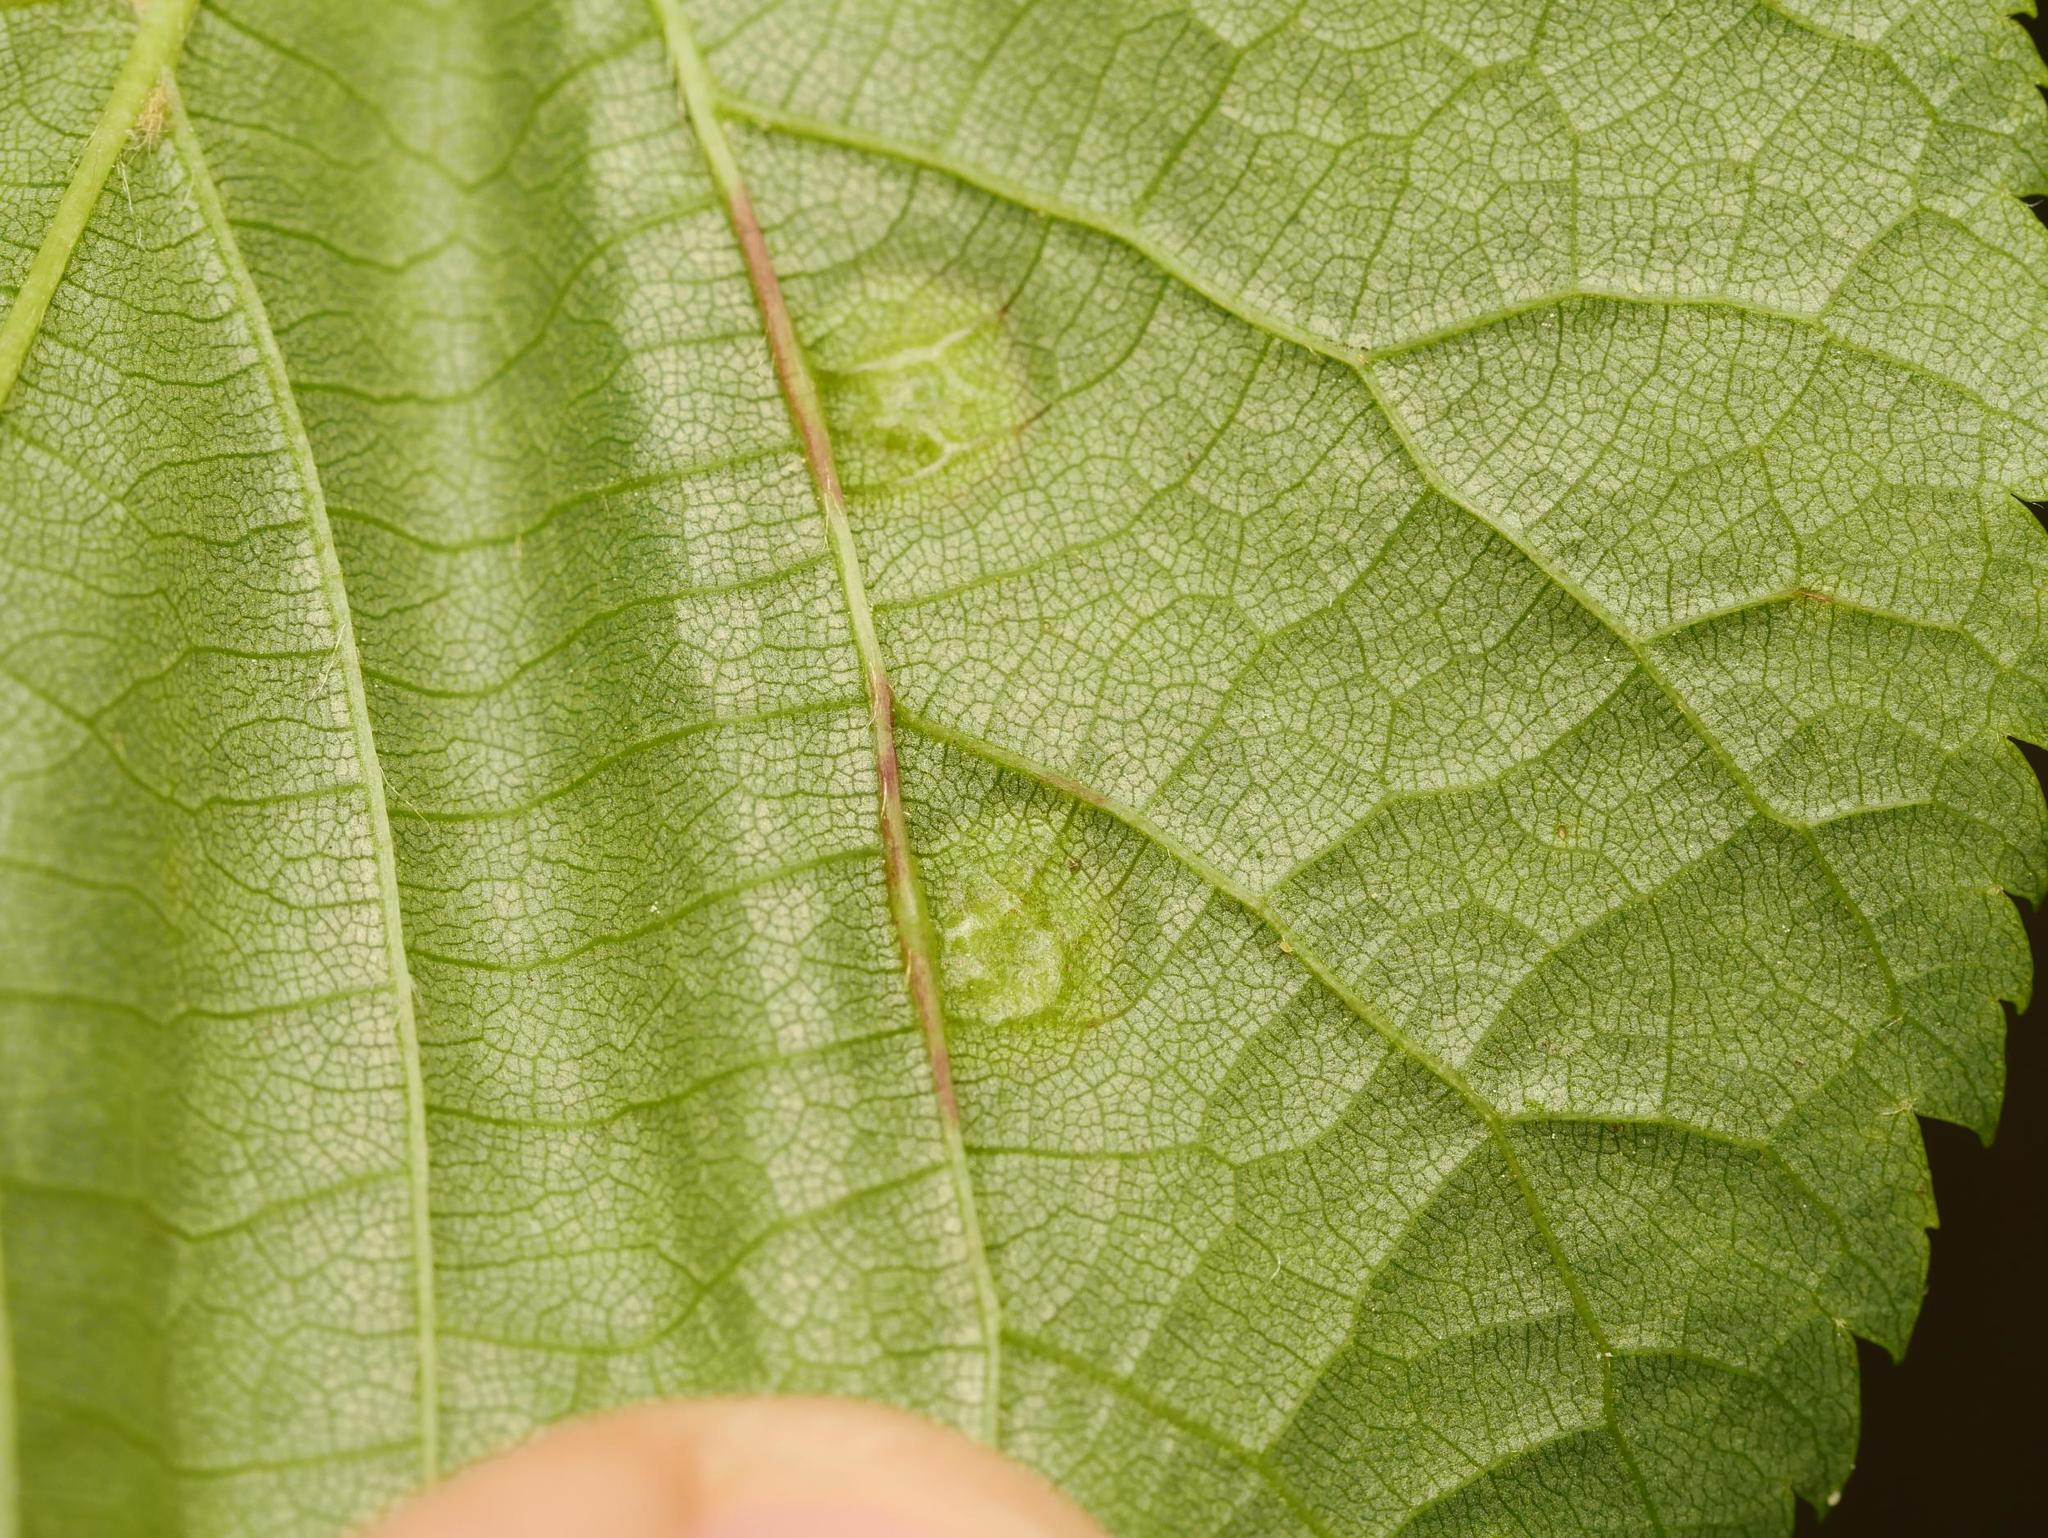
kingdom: Animalia
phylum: Arthropoda
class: Insecta
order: Diptera
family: Cecidomyiidae
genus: Didymomyia
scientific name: Didymomyia tiliacea
